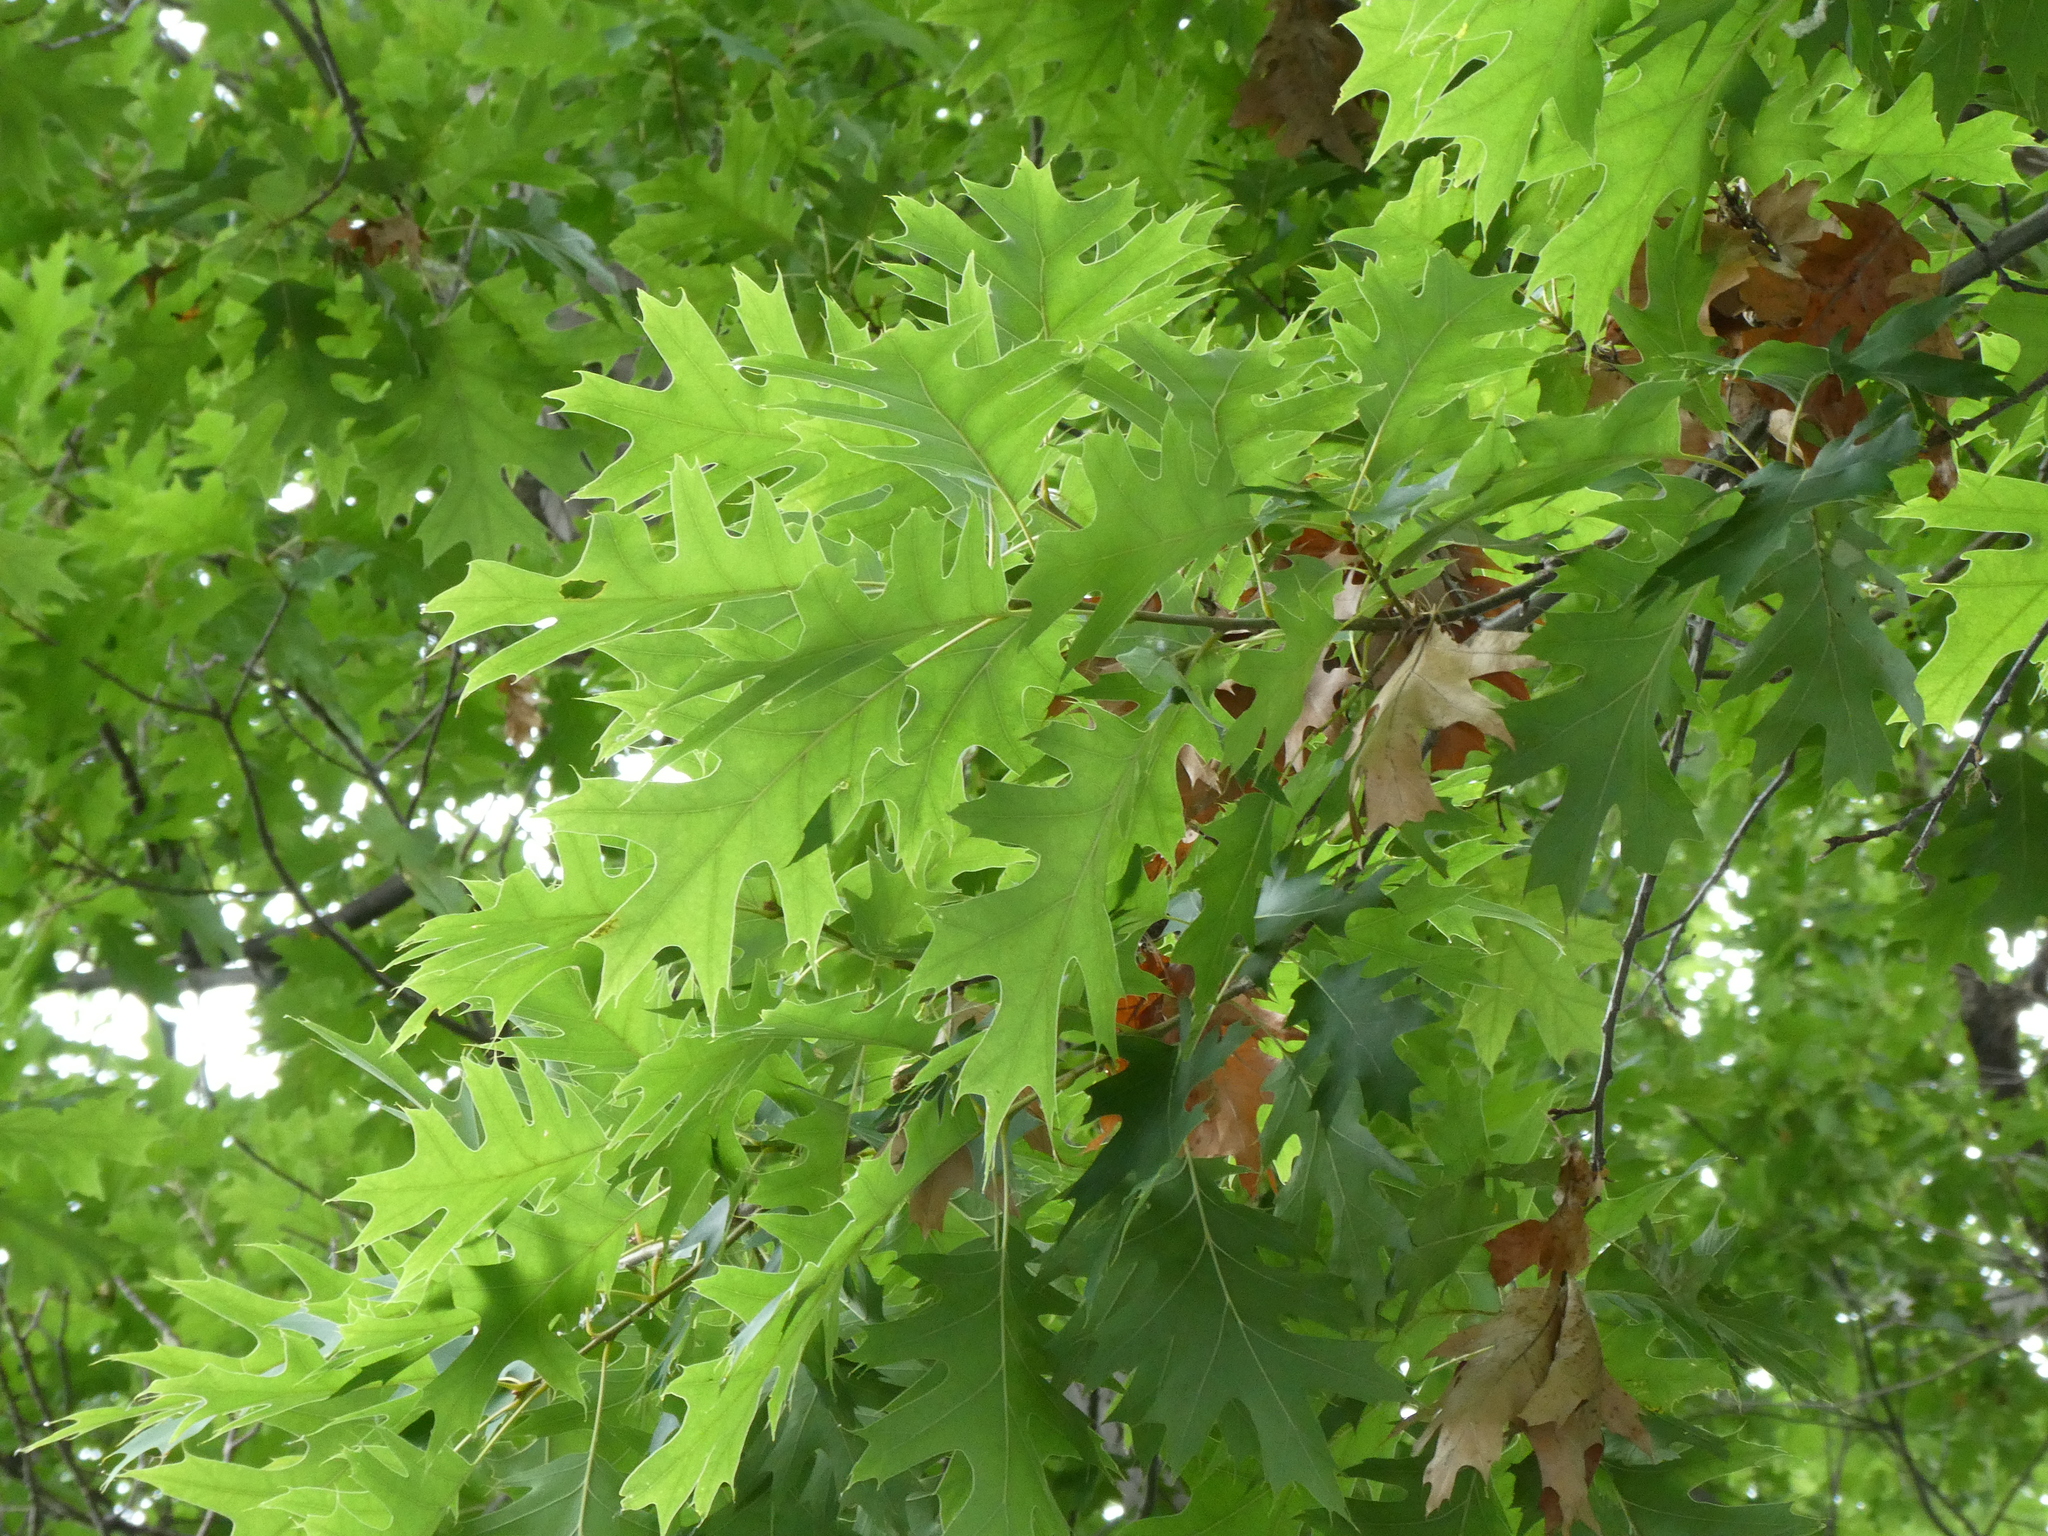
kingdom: Plantae
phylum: Tracheophyta
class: Magnoliopsida
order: Fagales
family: Fagaceae
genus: Quercus
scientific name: Quercus rubra
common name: Red oak
